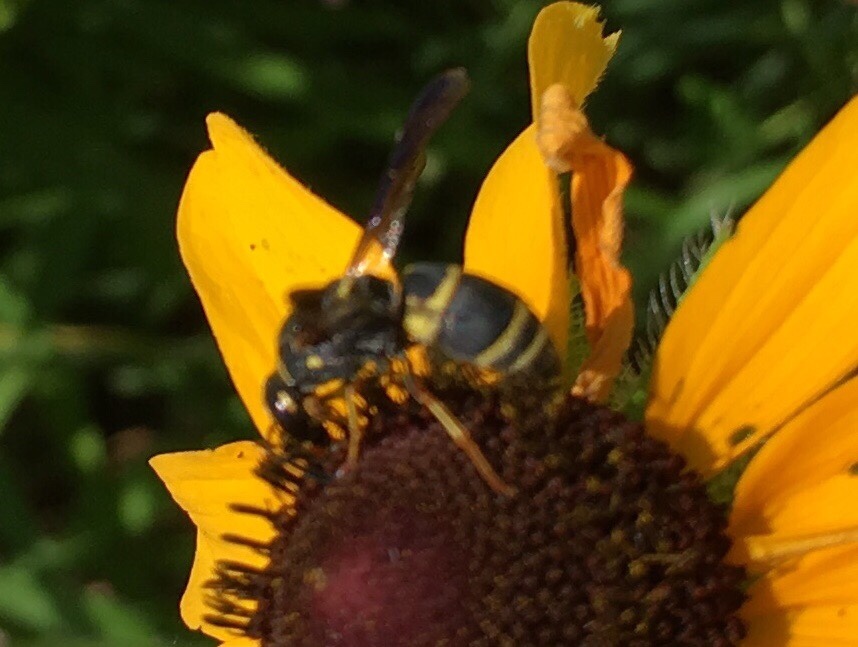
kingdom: Animalia
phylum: Arthropoda
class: Insecta
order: Hymenoptera
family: Eumenidae
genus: Euodynerus
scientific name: Euodynerus hidalgo
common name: Wasp
